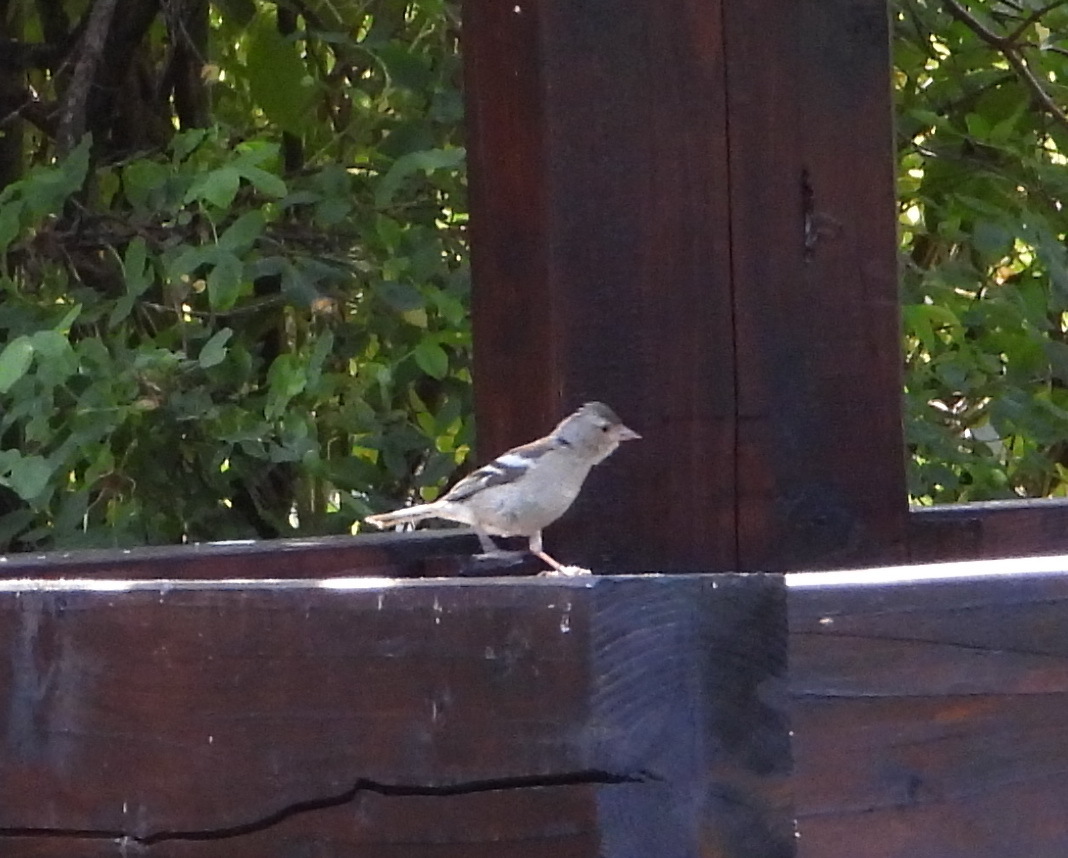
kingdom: Animalia
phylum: Chordata
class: Aves
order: Passeriformes
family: Fringillidae
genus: Fringilla
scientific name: Fringilla coelebs
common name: Common chaffinch
